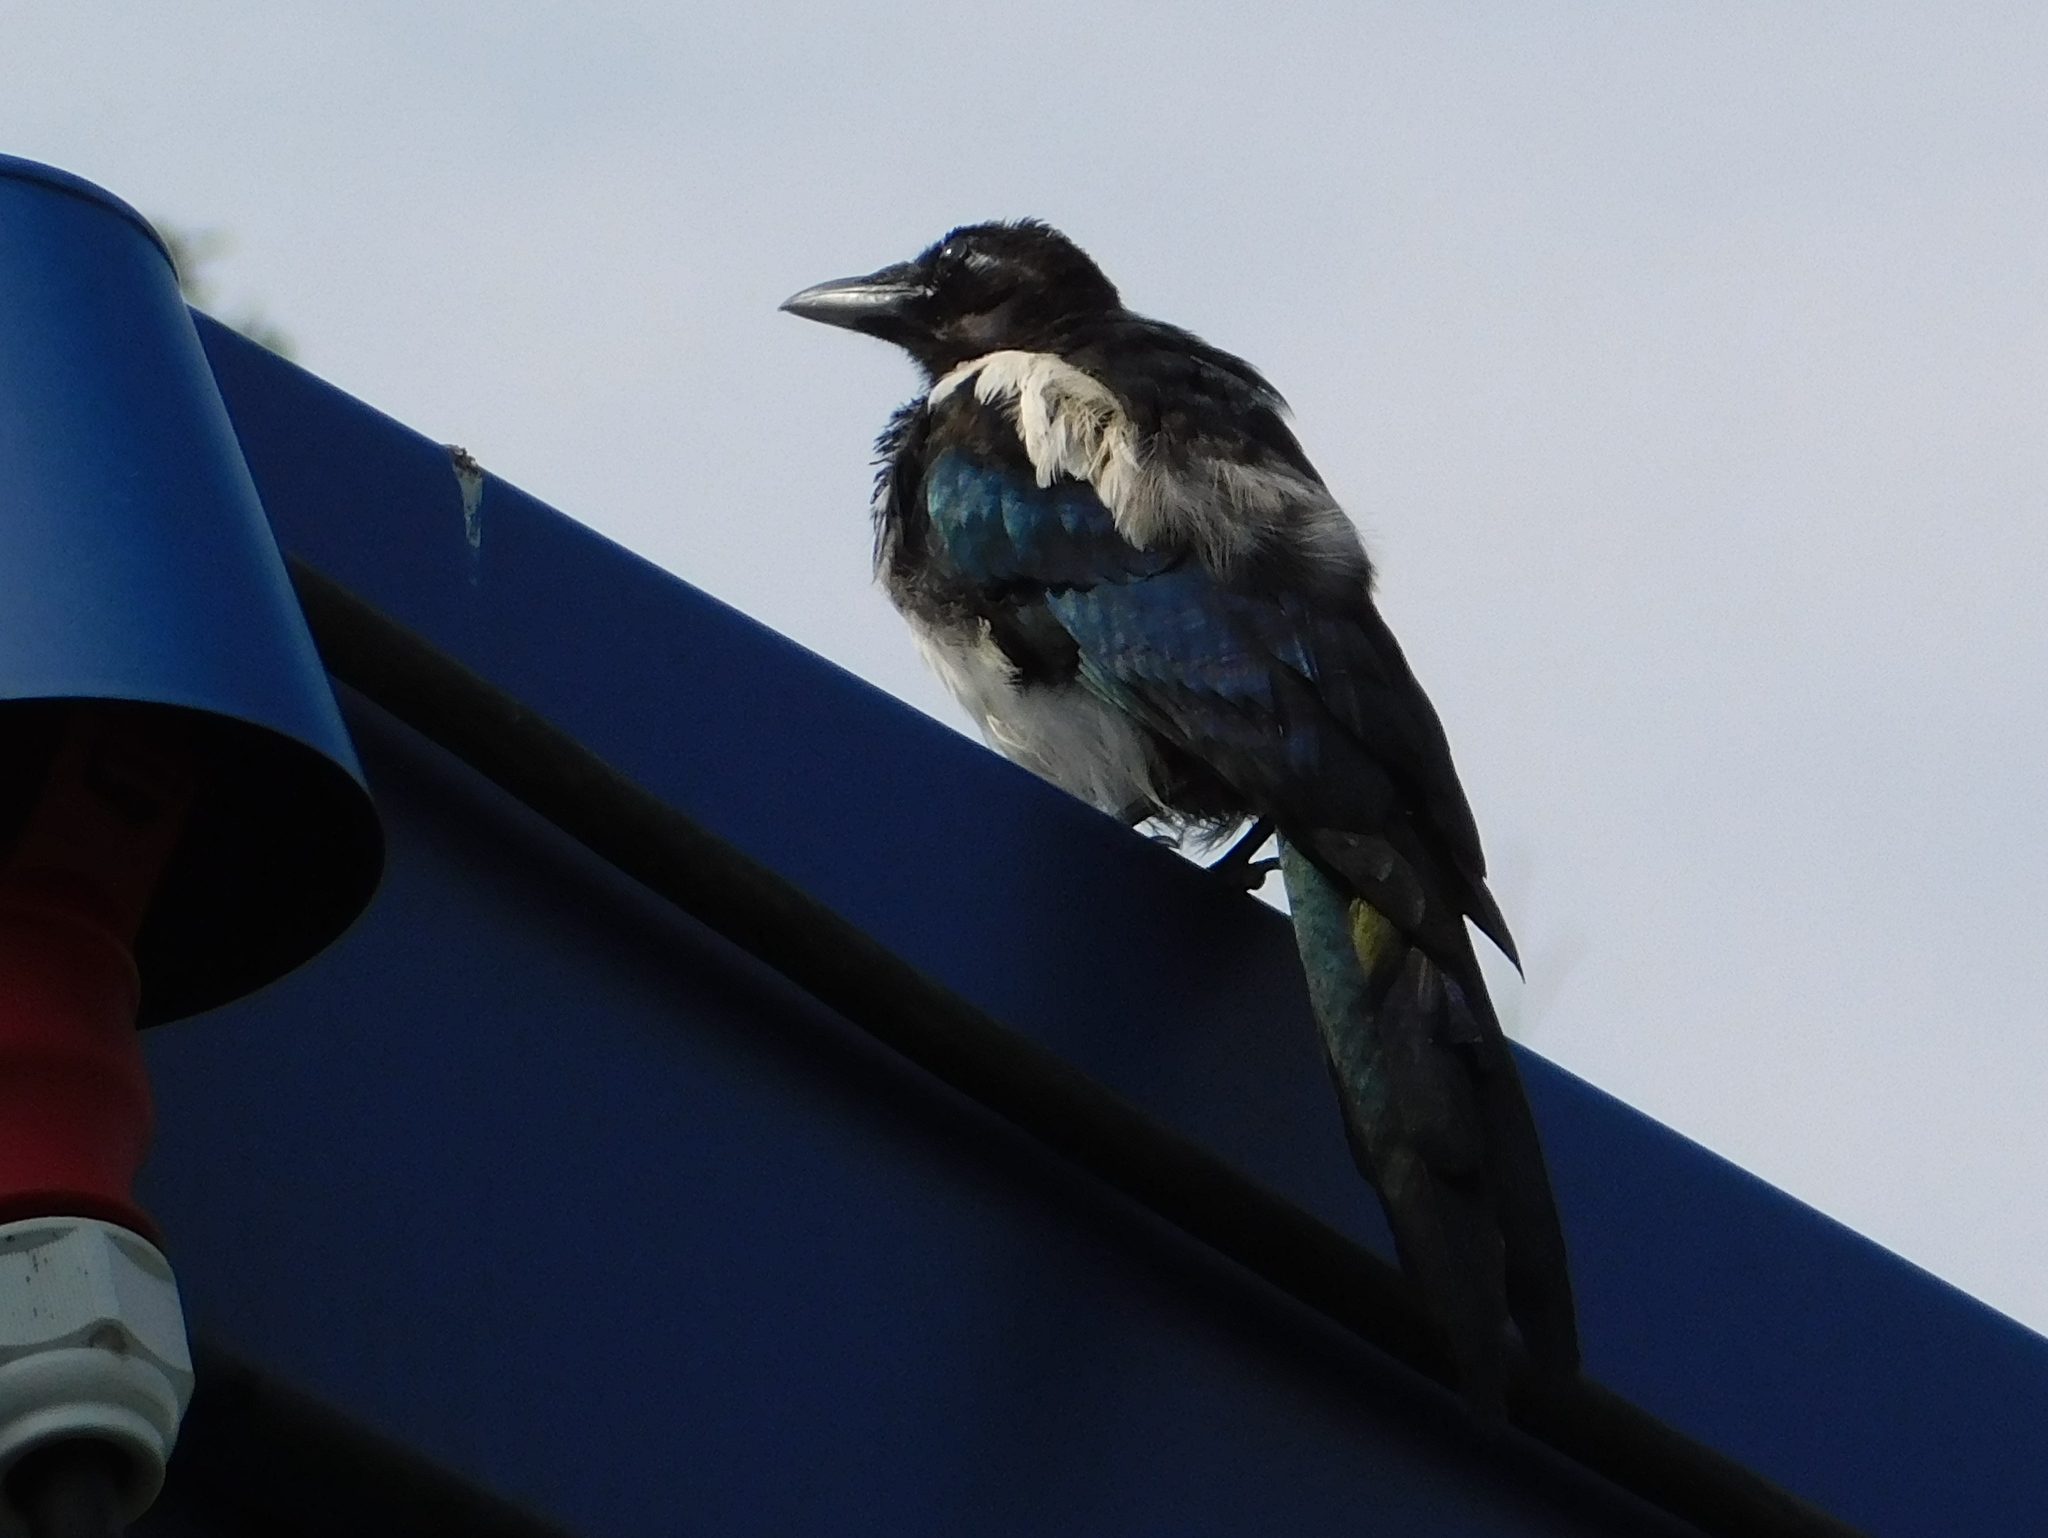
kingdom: Animalia
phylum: Chordata
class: Aves
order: Passeriformes
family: Corvidae
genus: Pica
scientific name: Pica pica
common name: Eurasian magpie
